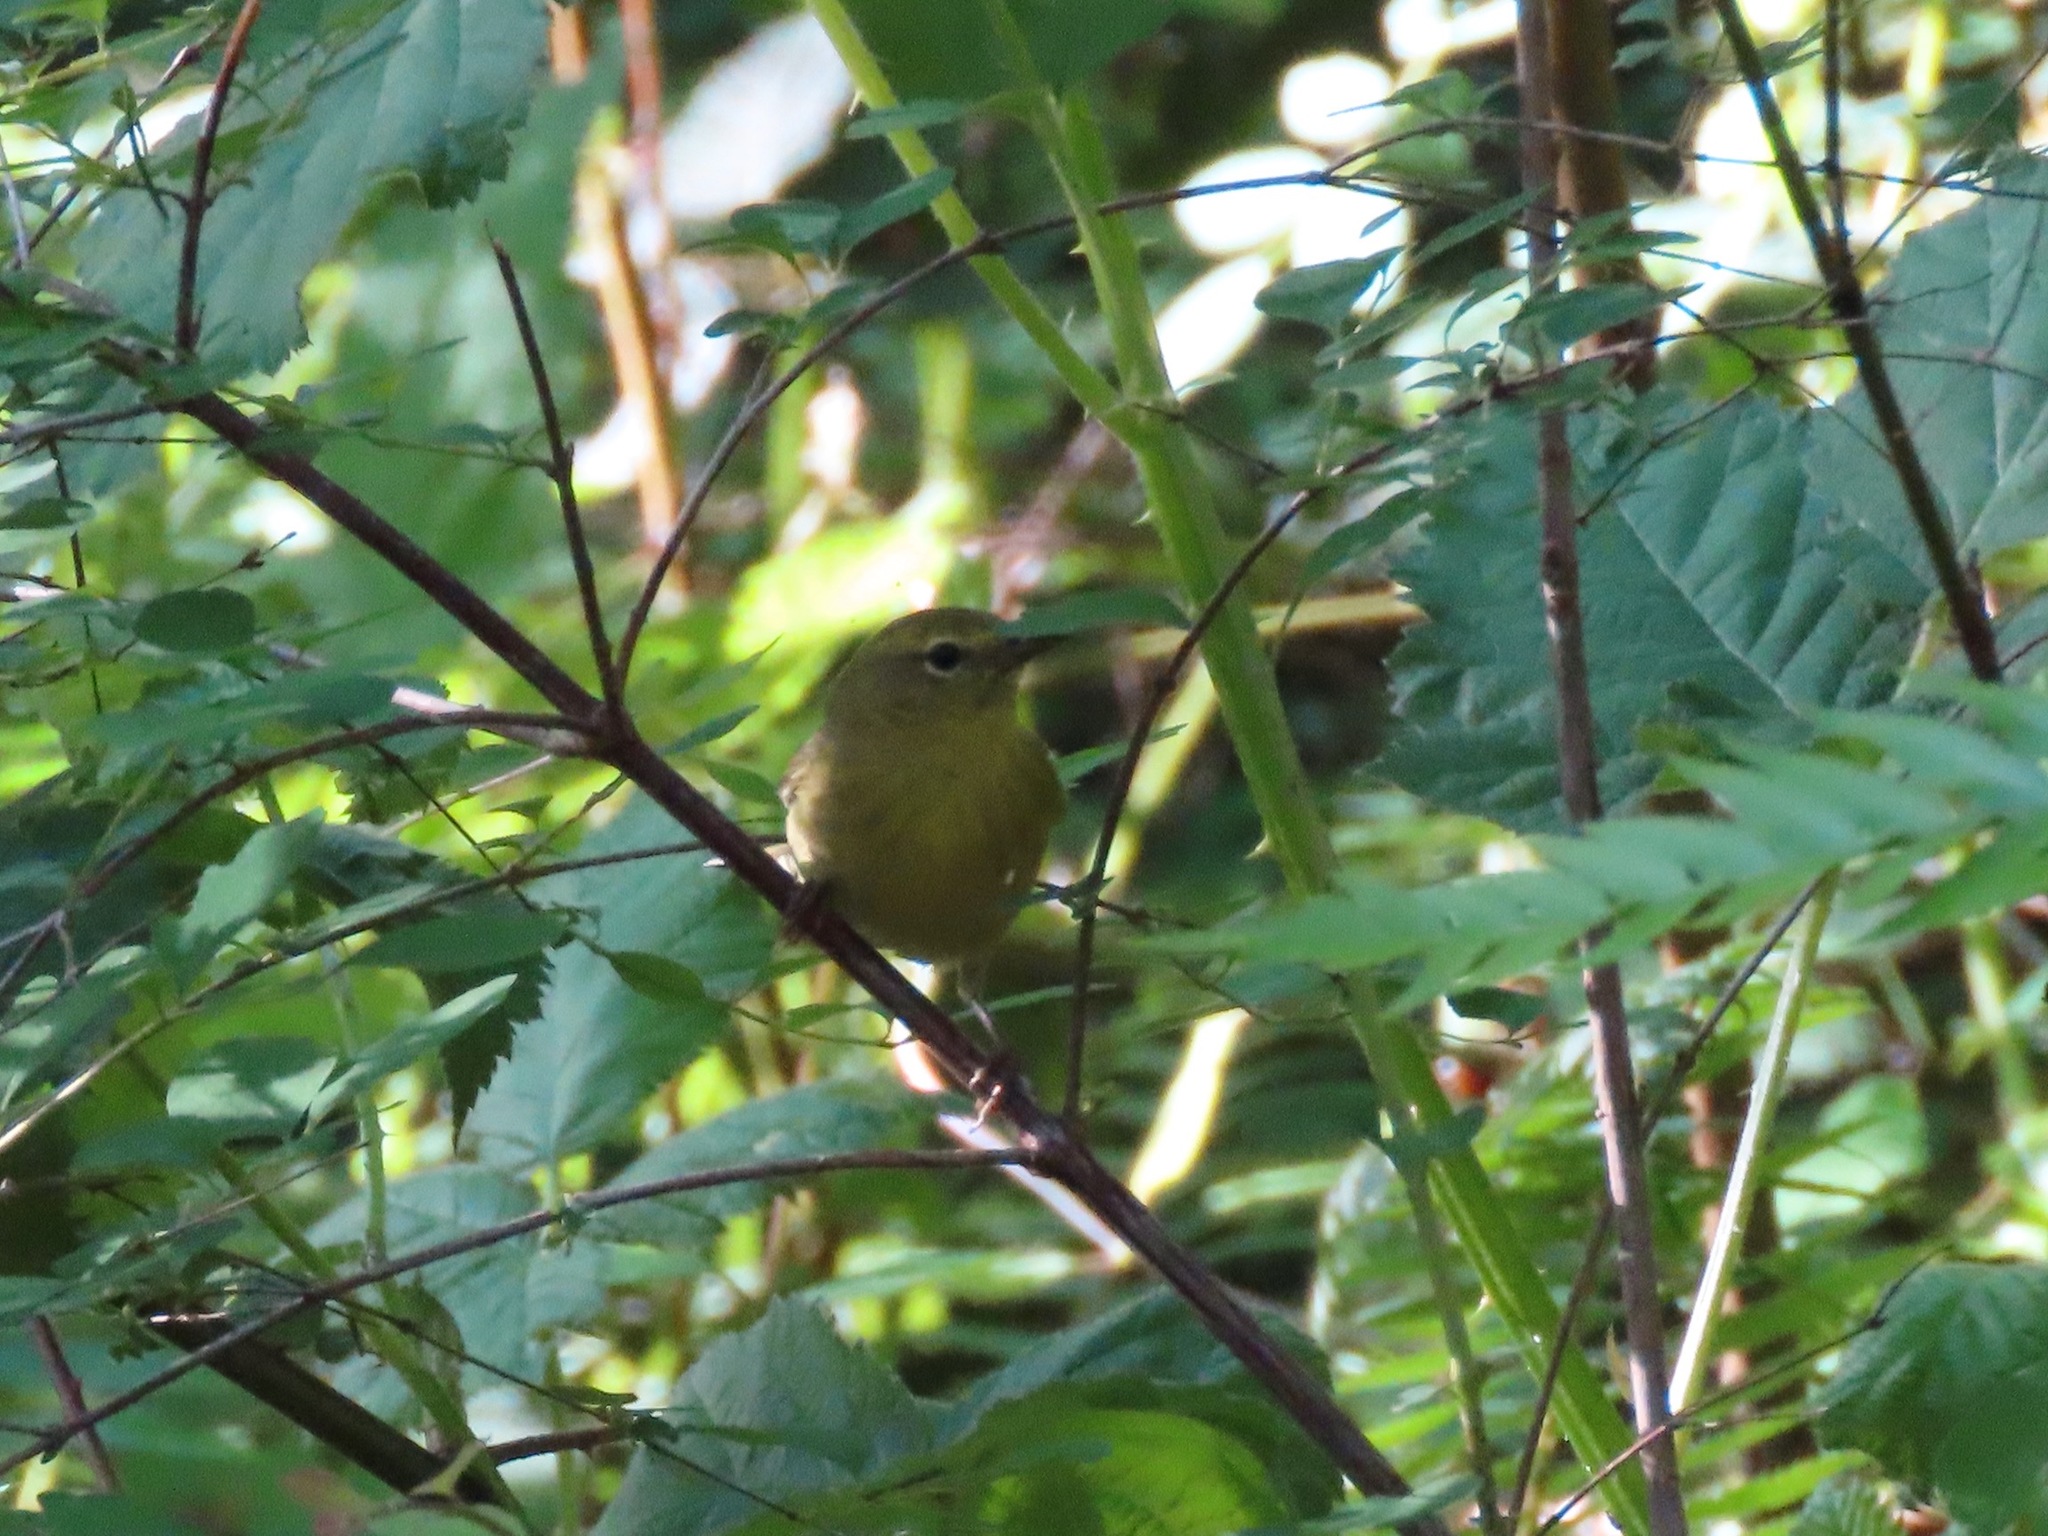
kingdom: Animalia
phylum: Chordata
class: Aves
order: Passeriformes
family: Parulidae
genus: Leiothlypis
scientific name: Leiothlypis celata
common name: Orange-crowned warbler
